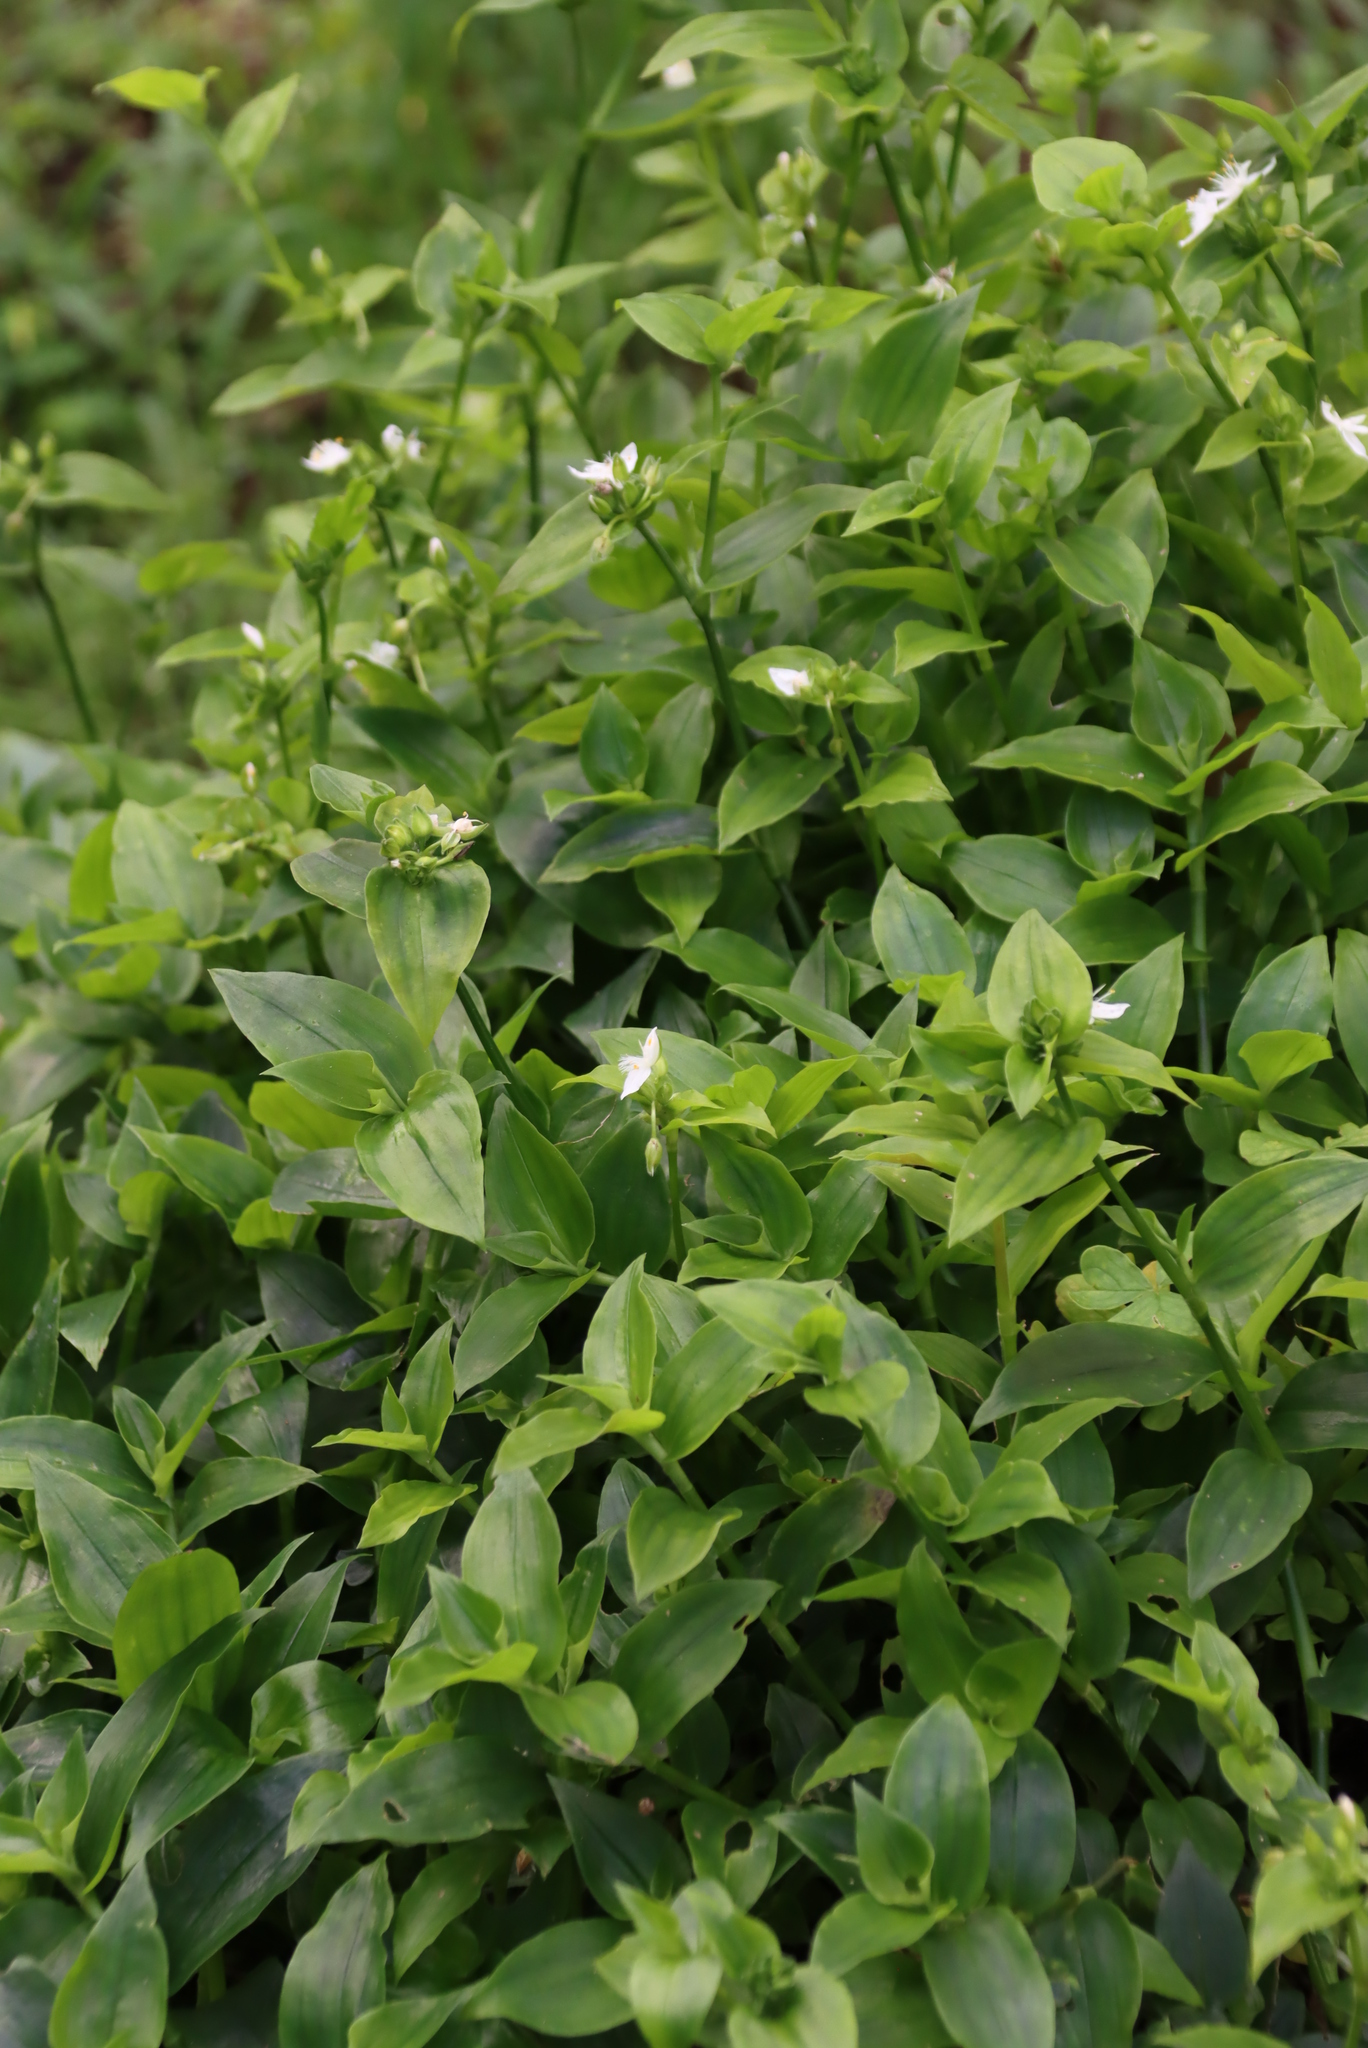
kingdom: Plantae
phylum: Tracheophyta
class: Liliopsida
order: Commelinales
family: Commelinaceae
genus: Tradescantia
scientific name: Tradescantia fluminensis
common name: Wandering-jew
